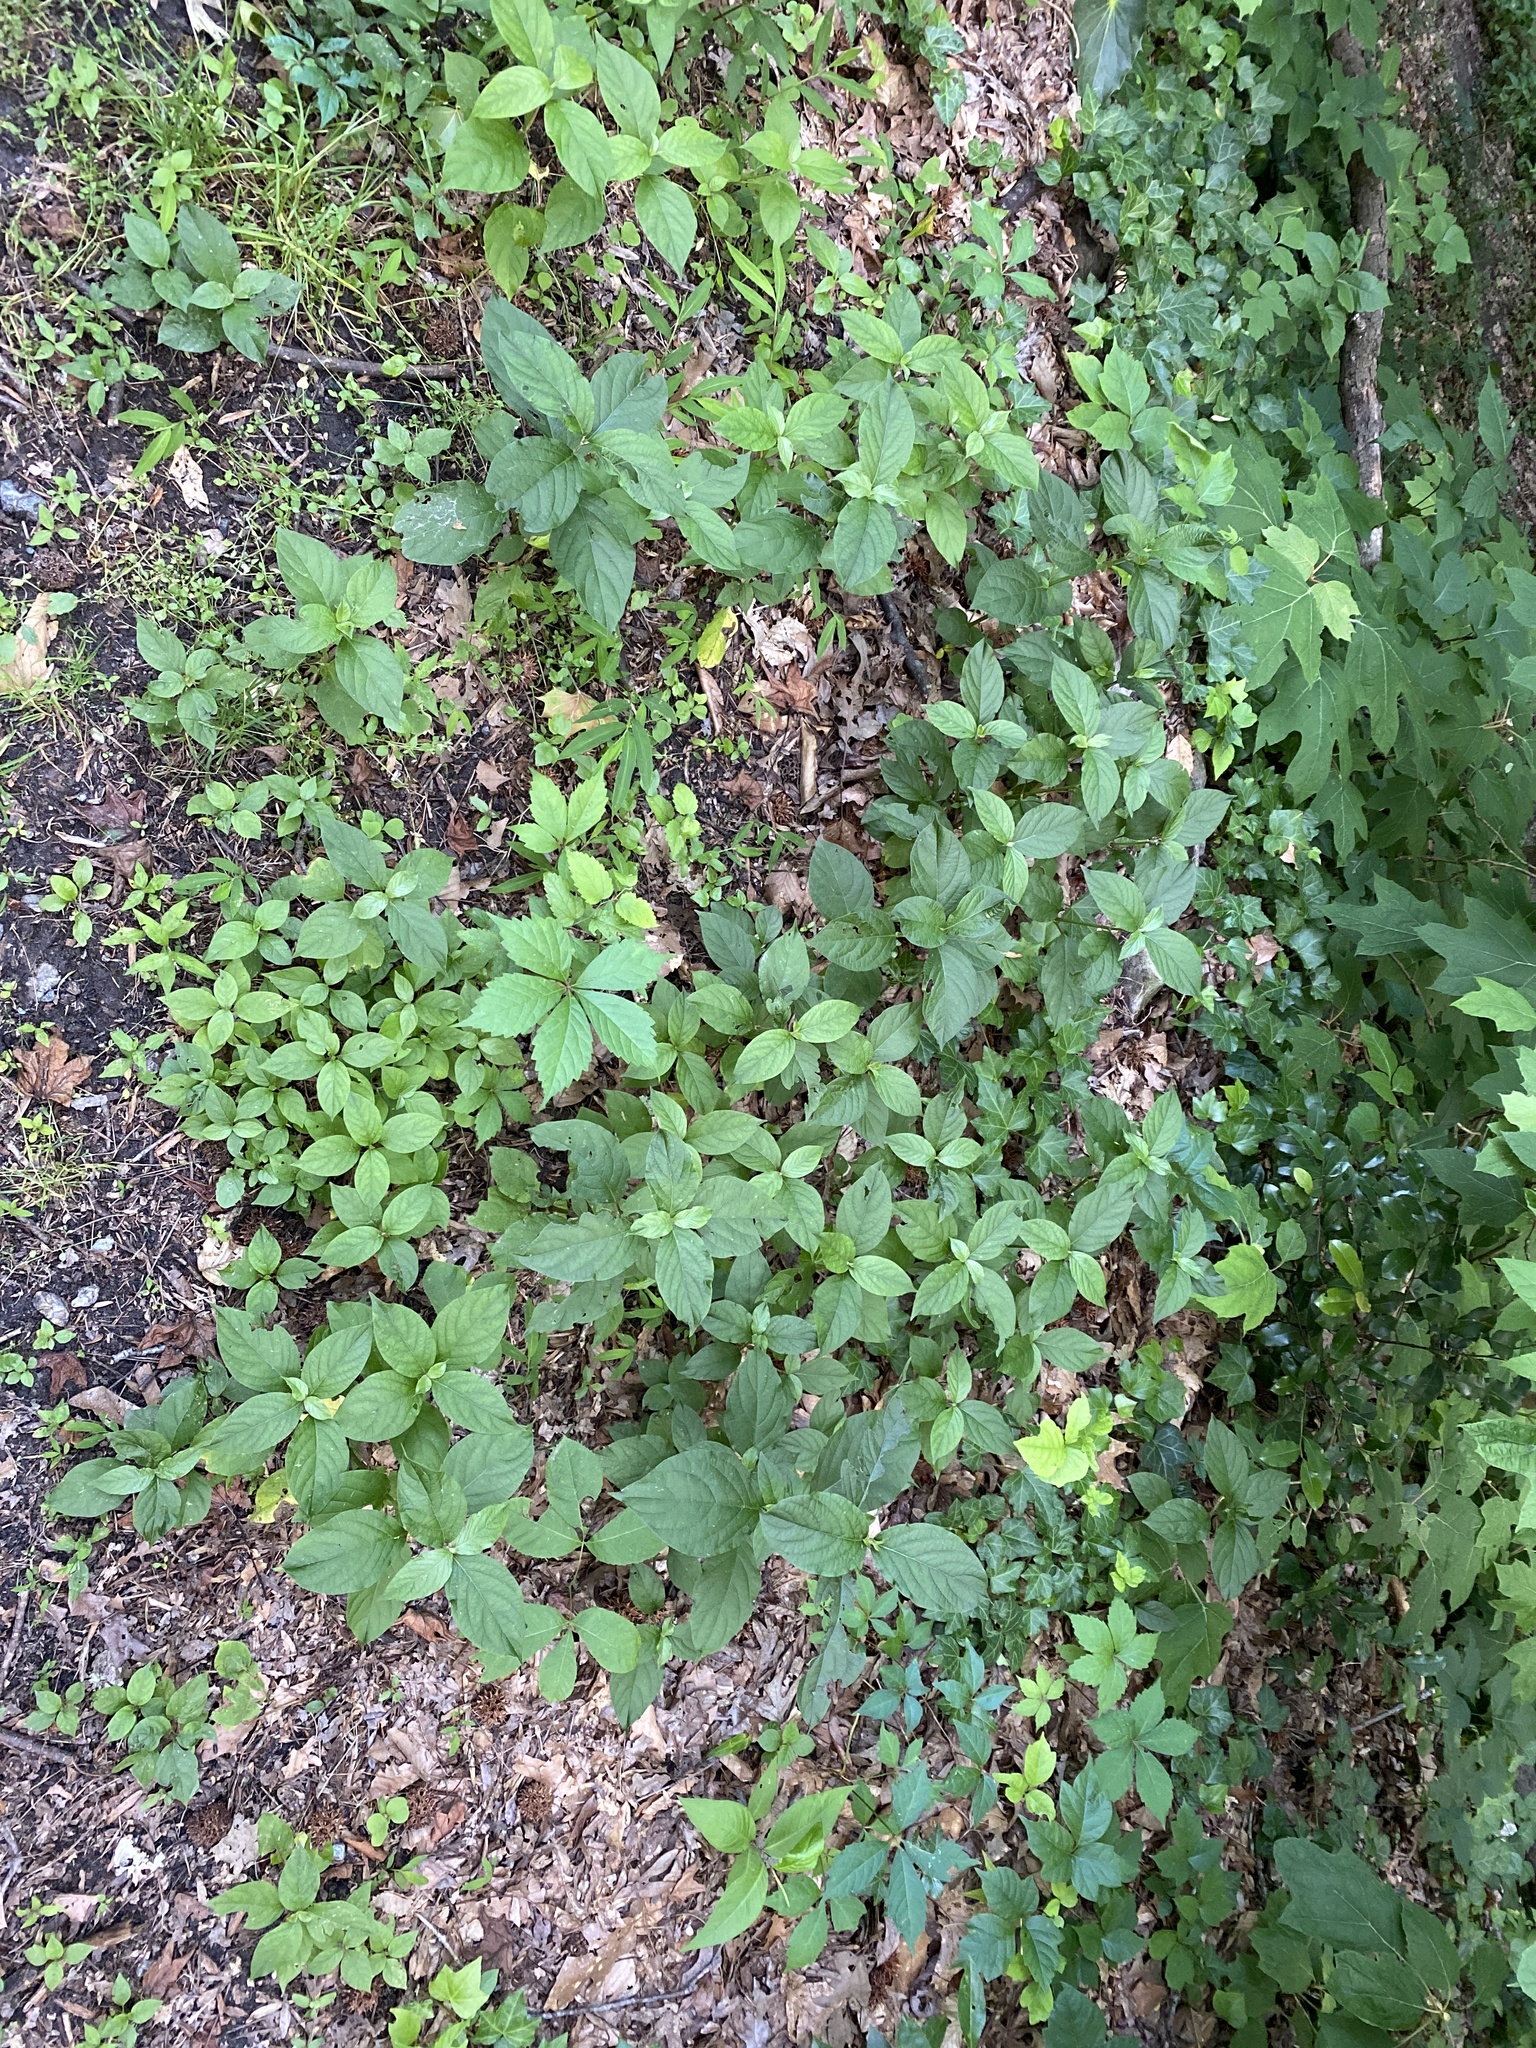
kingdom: Plantae
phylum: Tracheophyta
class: Magnoliopsida
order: Caryophyllales
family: Amaranthaceae
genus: Achyranthes
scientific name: Achyranthes bidentata
